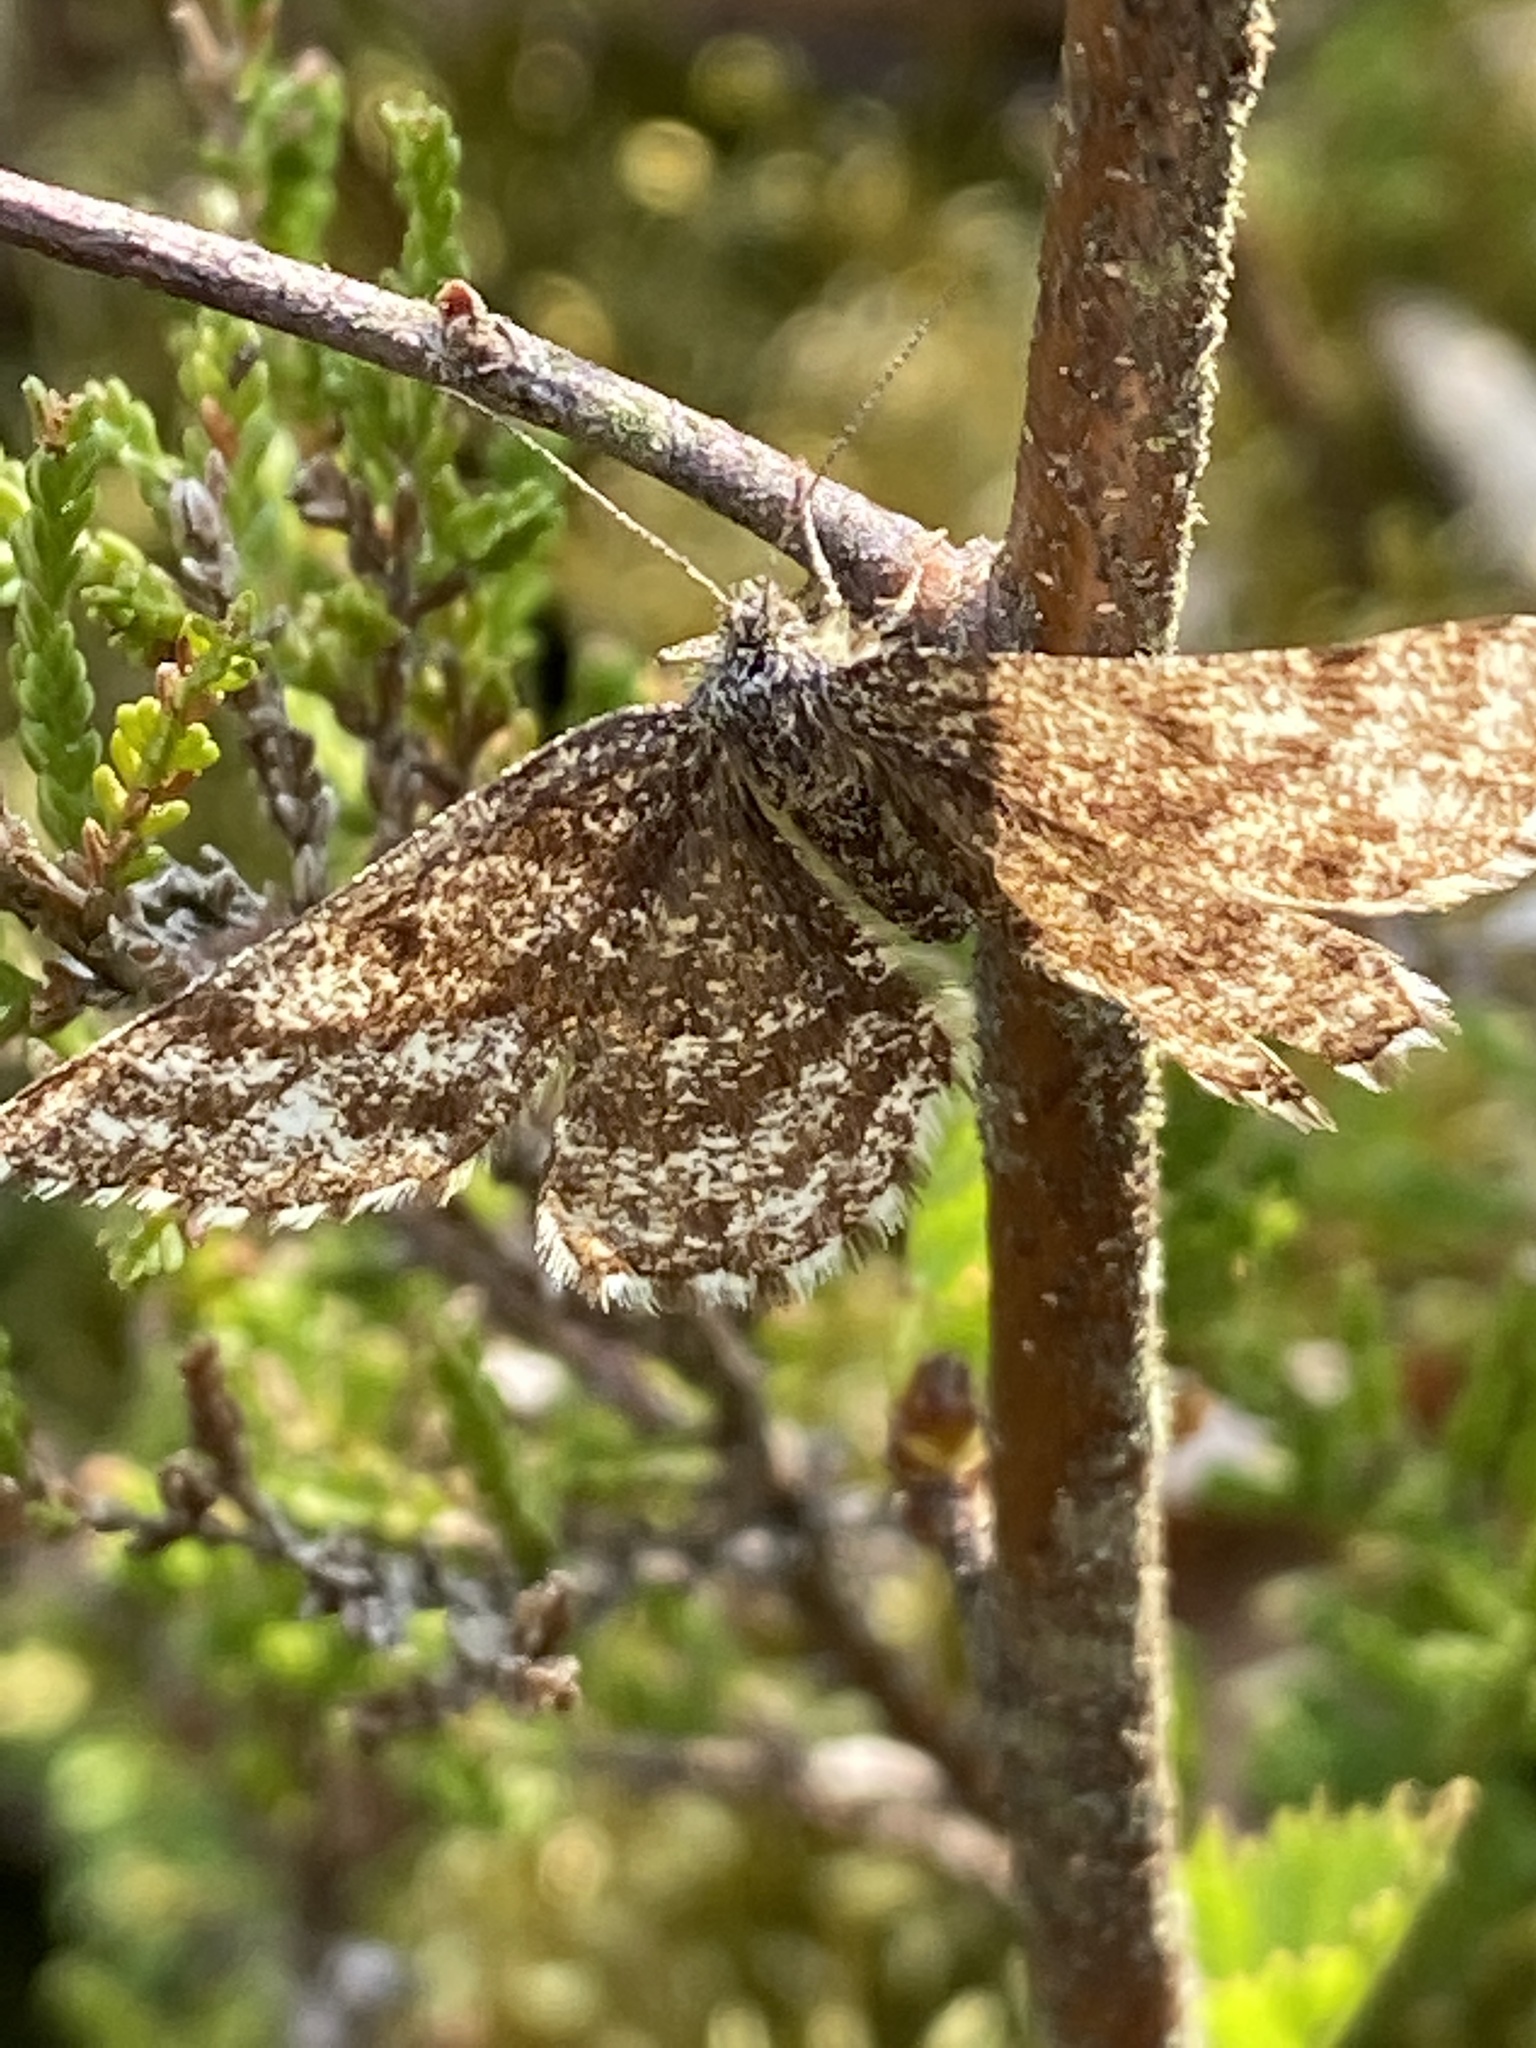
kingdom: Animalia
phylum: Arthropoda
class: Insecta
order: Lepidoptera
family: Geometridae
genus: Ematurga
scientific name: Ematurga atomaria
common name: Common heath
